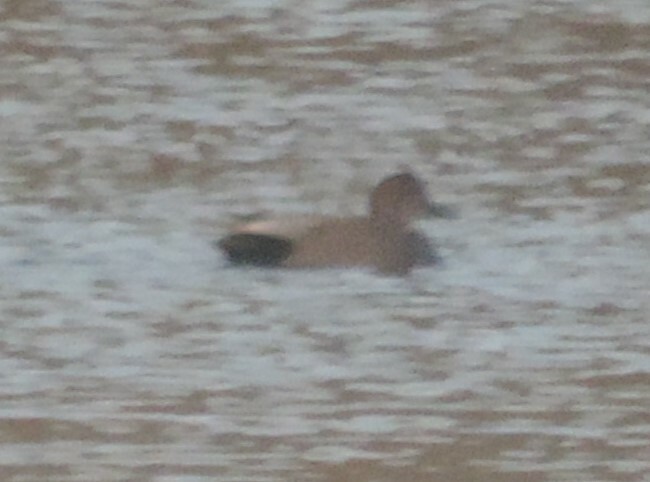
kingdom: Animalia
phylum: Chordata
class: Aves
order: Anseriformes
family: Anatidae
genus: Mareca
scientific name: Mareca strepera
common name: Gadwall
